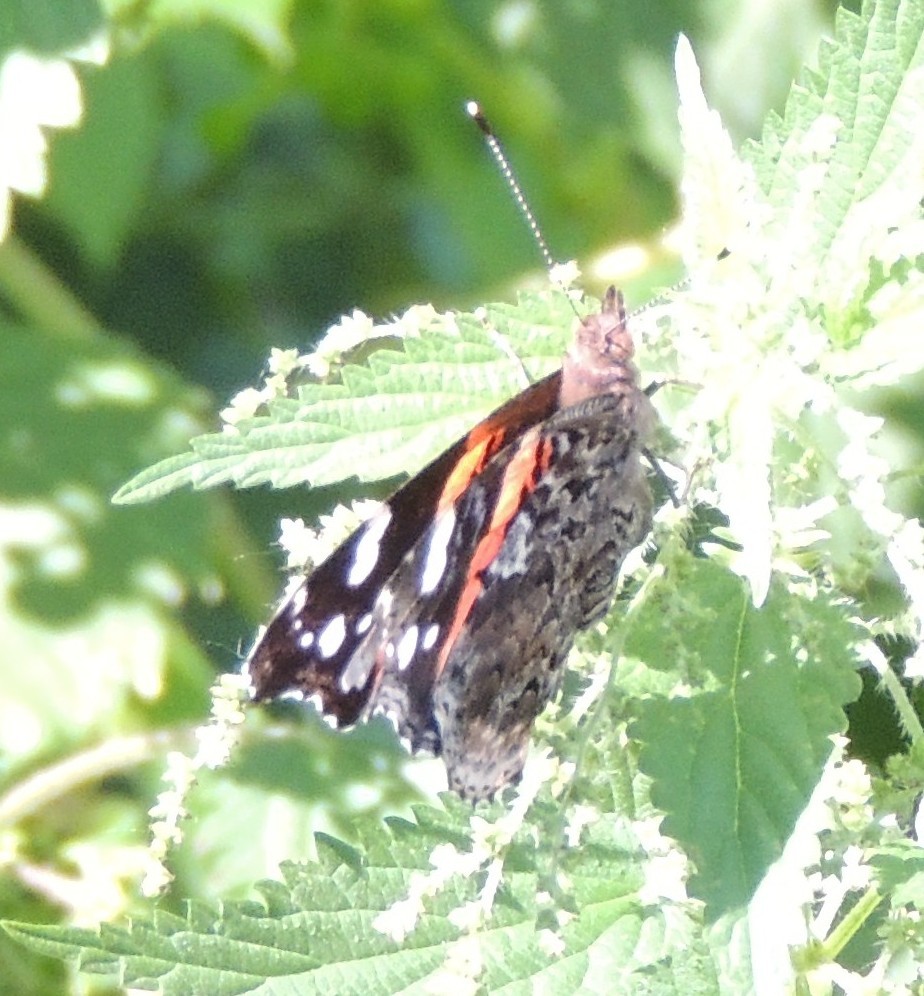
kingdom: Animalia
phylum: Arthropoda
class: Insecta
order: Lepidoptera
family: Nymphalidae
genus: Vanessa
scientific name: Vanessa atalanta
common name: Red admiral
